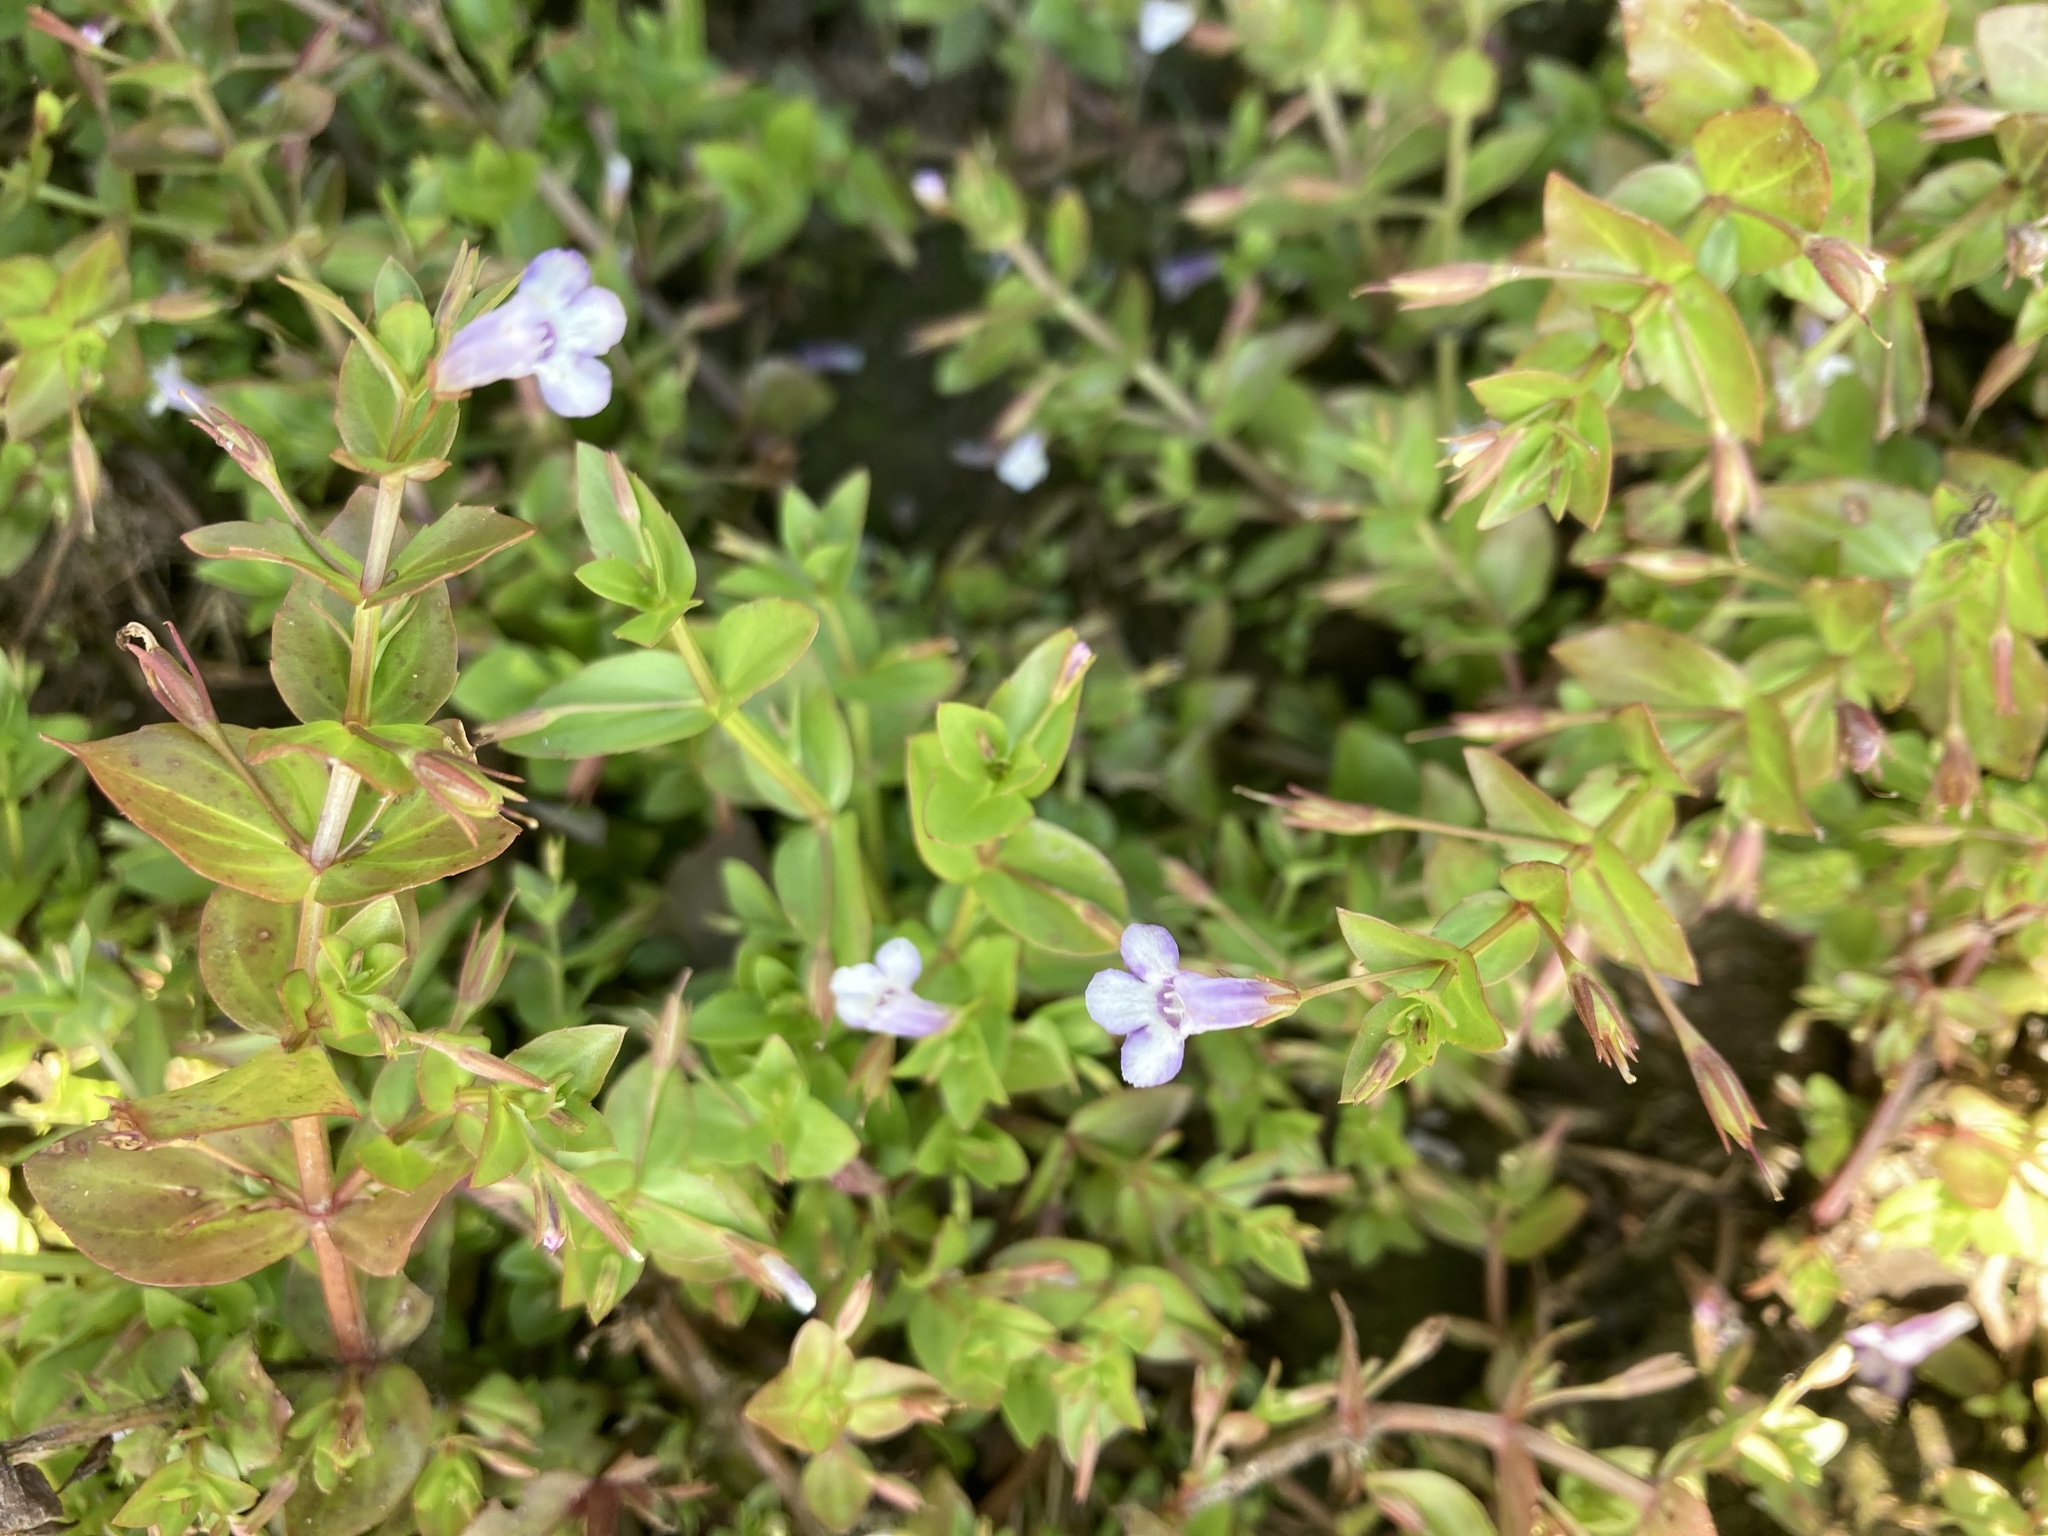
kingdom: Plantae
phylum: Tracheophyta
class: Magnoliopsida
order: Lamiales
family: Linderniaceae
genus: Lindernia
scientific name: Lindernia dubia
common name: Annual false pimpernel
